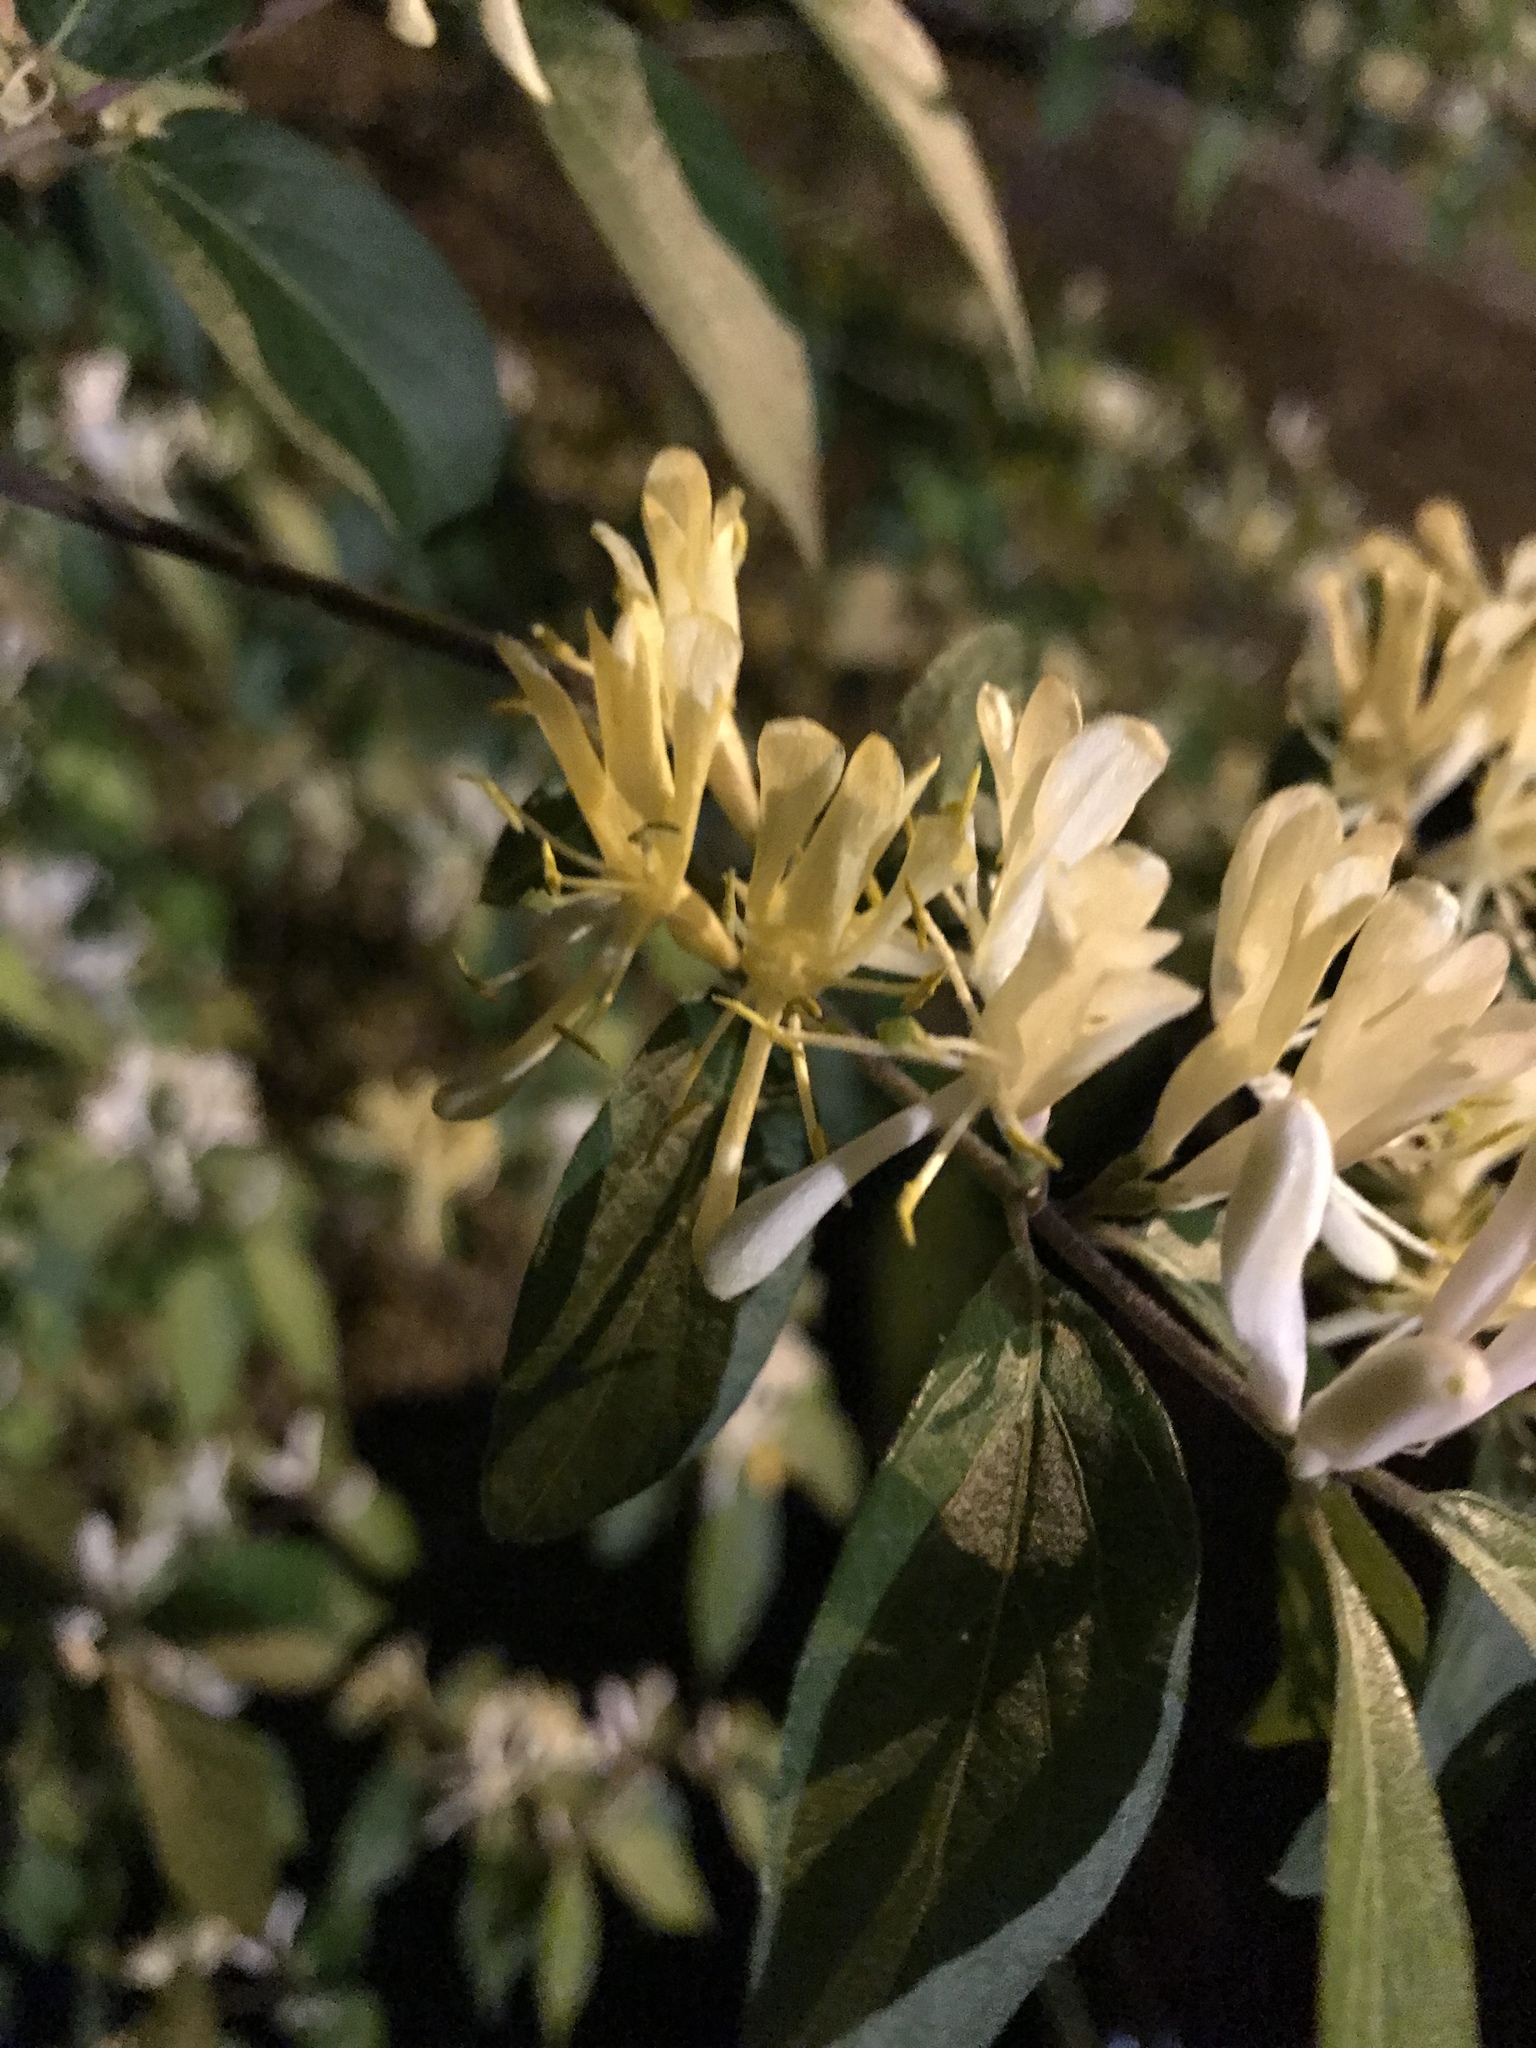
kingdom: Plantae
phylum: Tracheophyta
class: Magnoliopsida
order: Dipsacales
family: Caprifoliaceae
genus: Lonicera
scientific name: Lonicera maackii
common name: Amur honeysuckle
